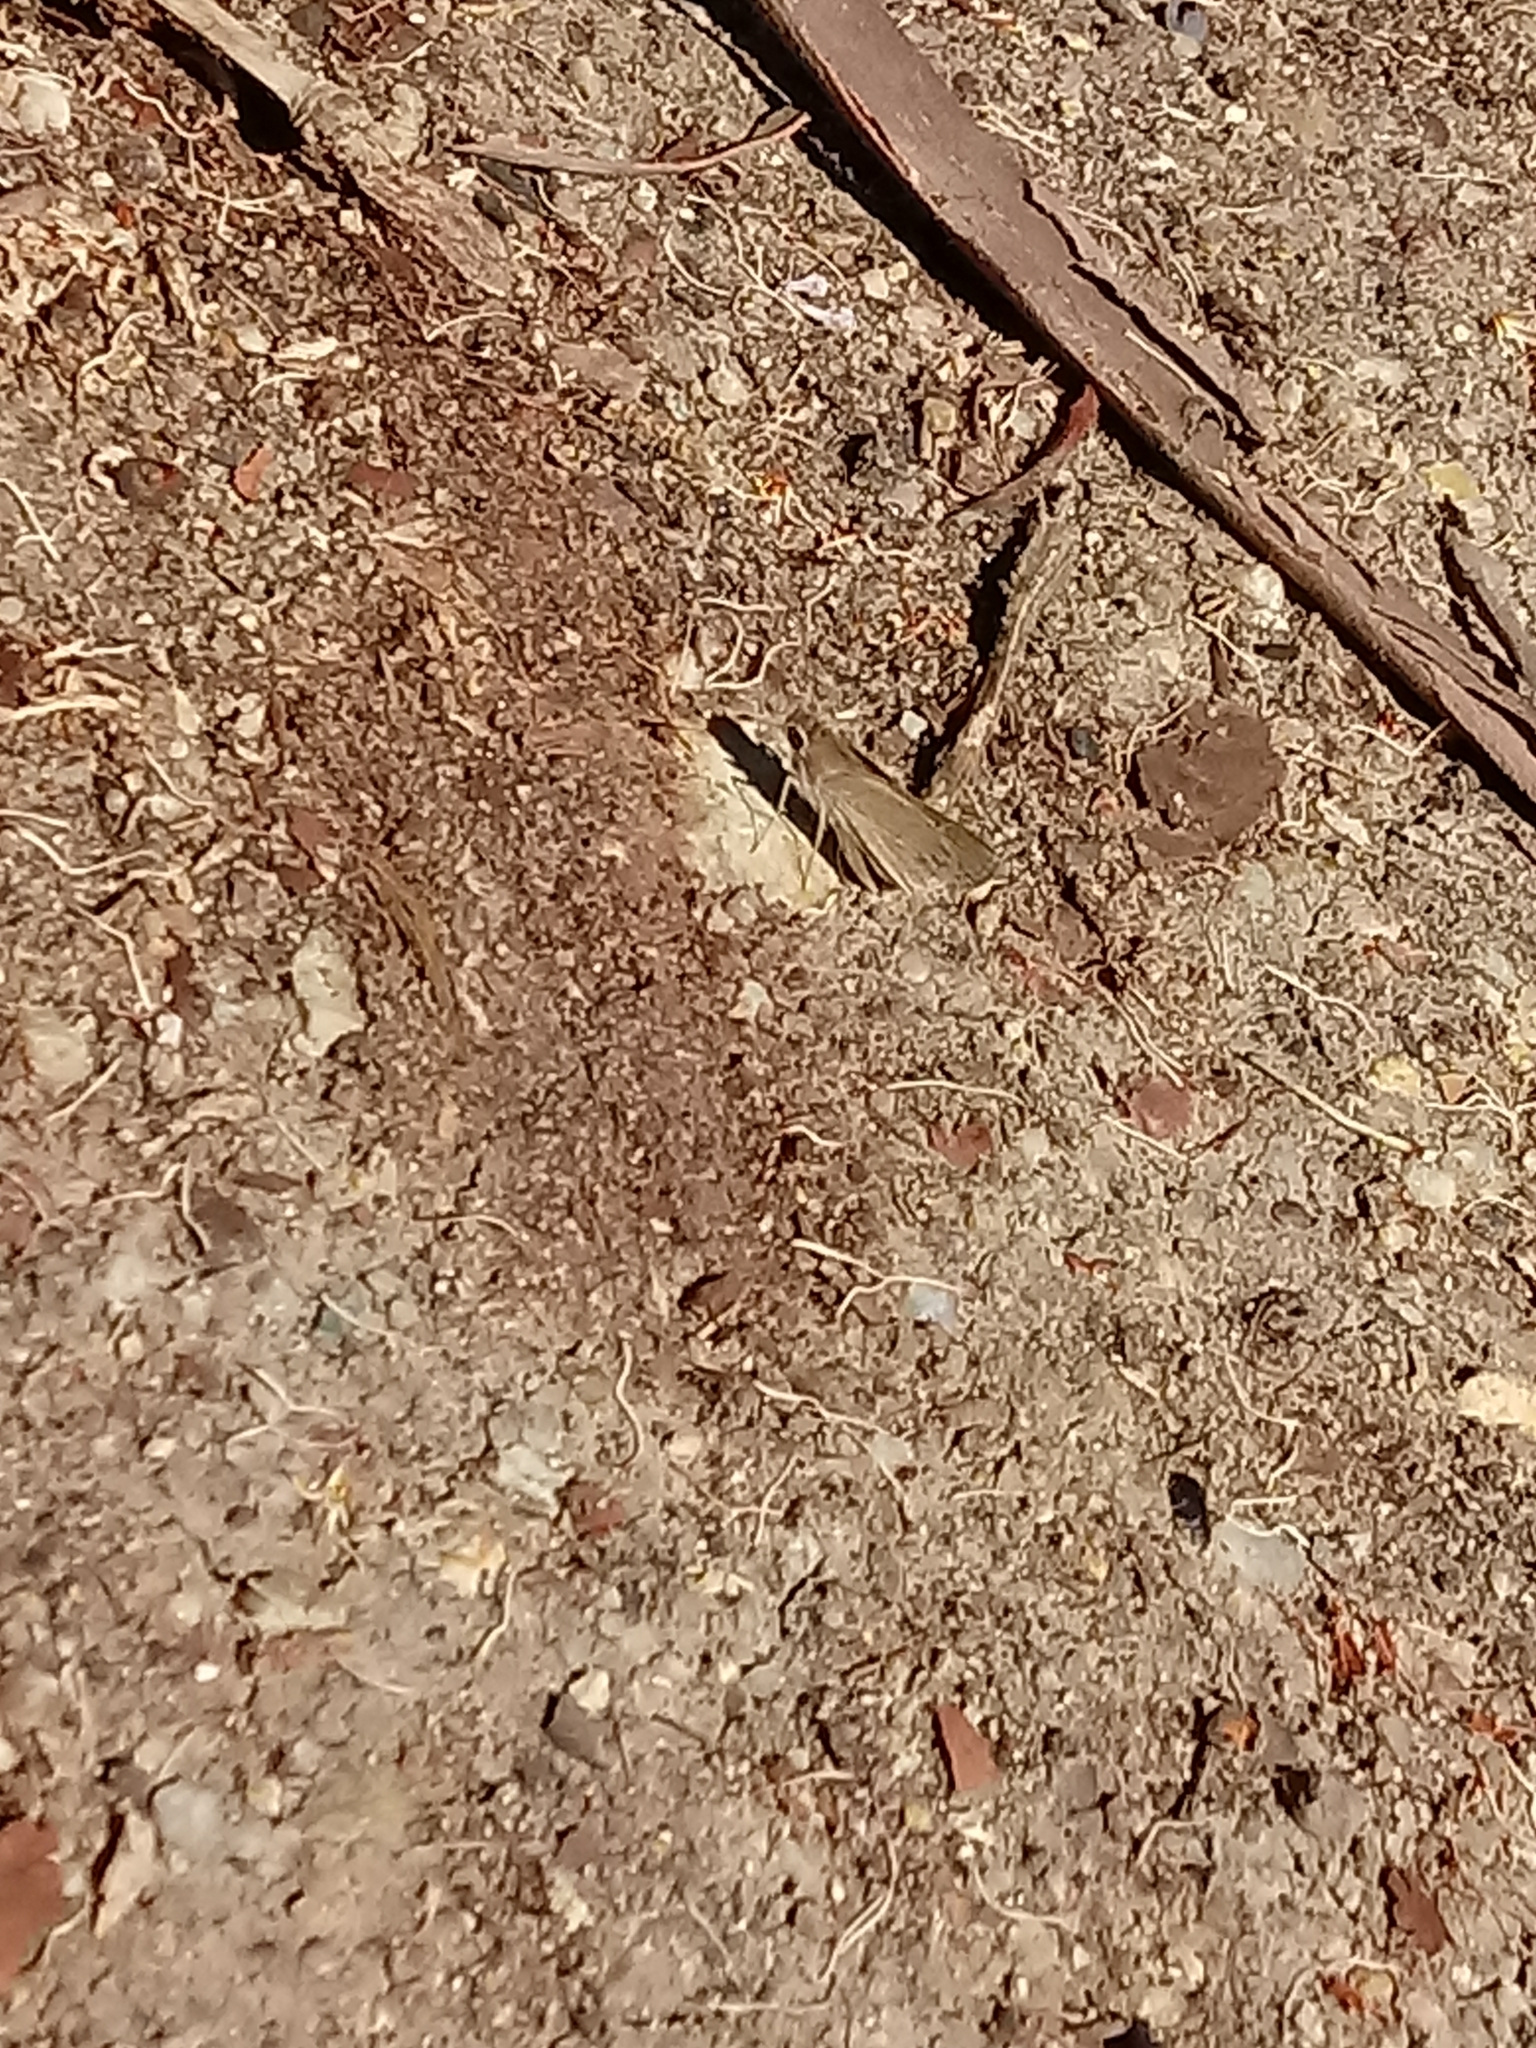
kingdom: Animalia
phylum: Arthropoda
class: Insecta
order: Lepidoptera
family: Hesperiidae
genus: Lerodea
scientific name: Lerodea eufala
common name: Eufala skipper
